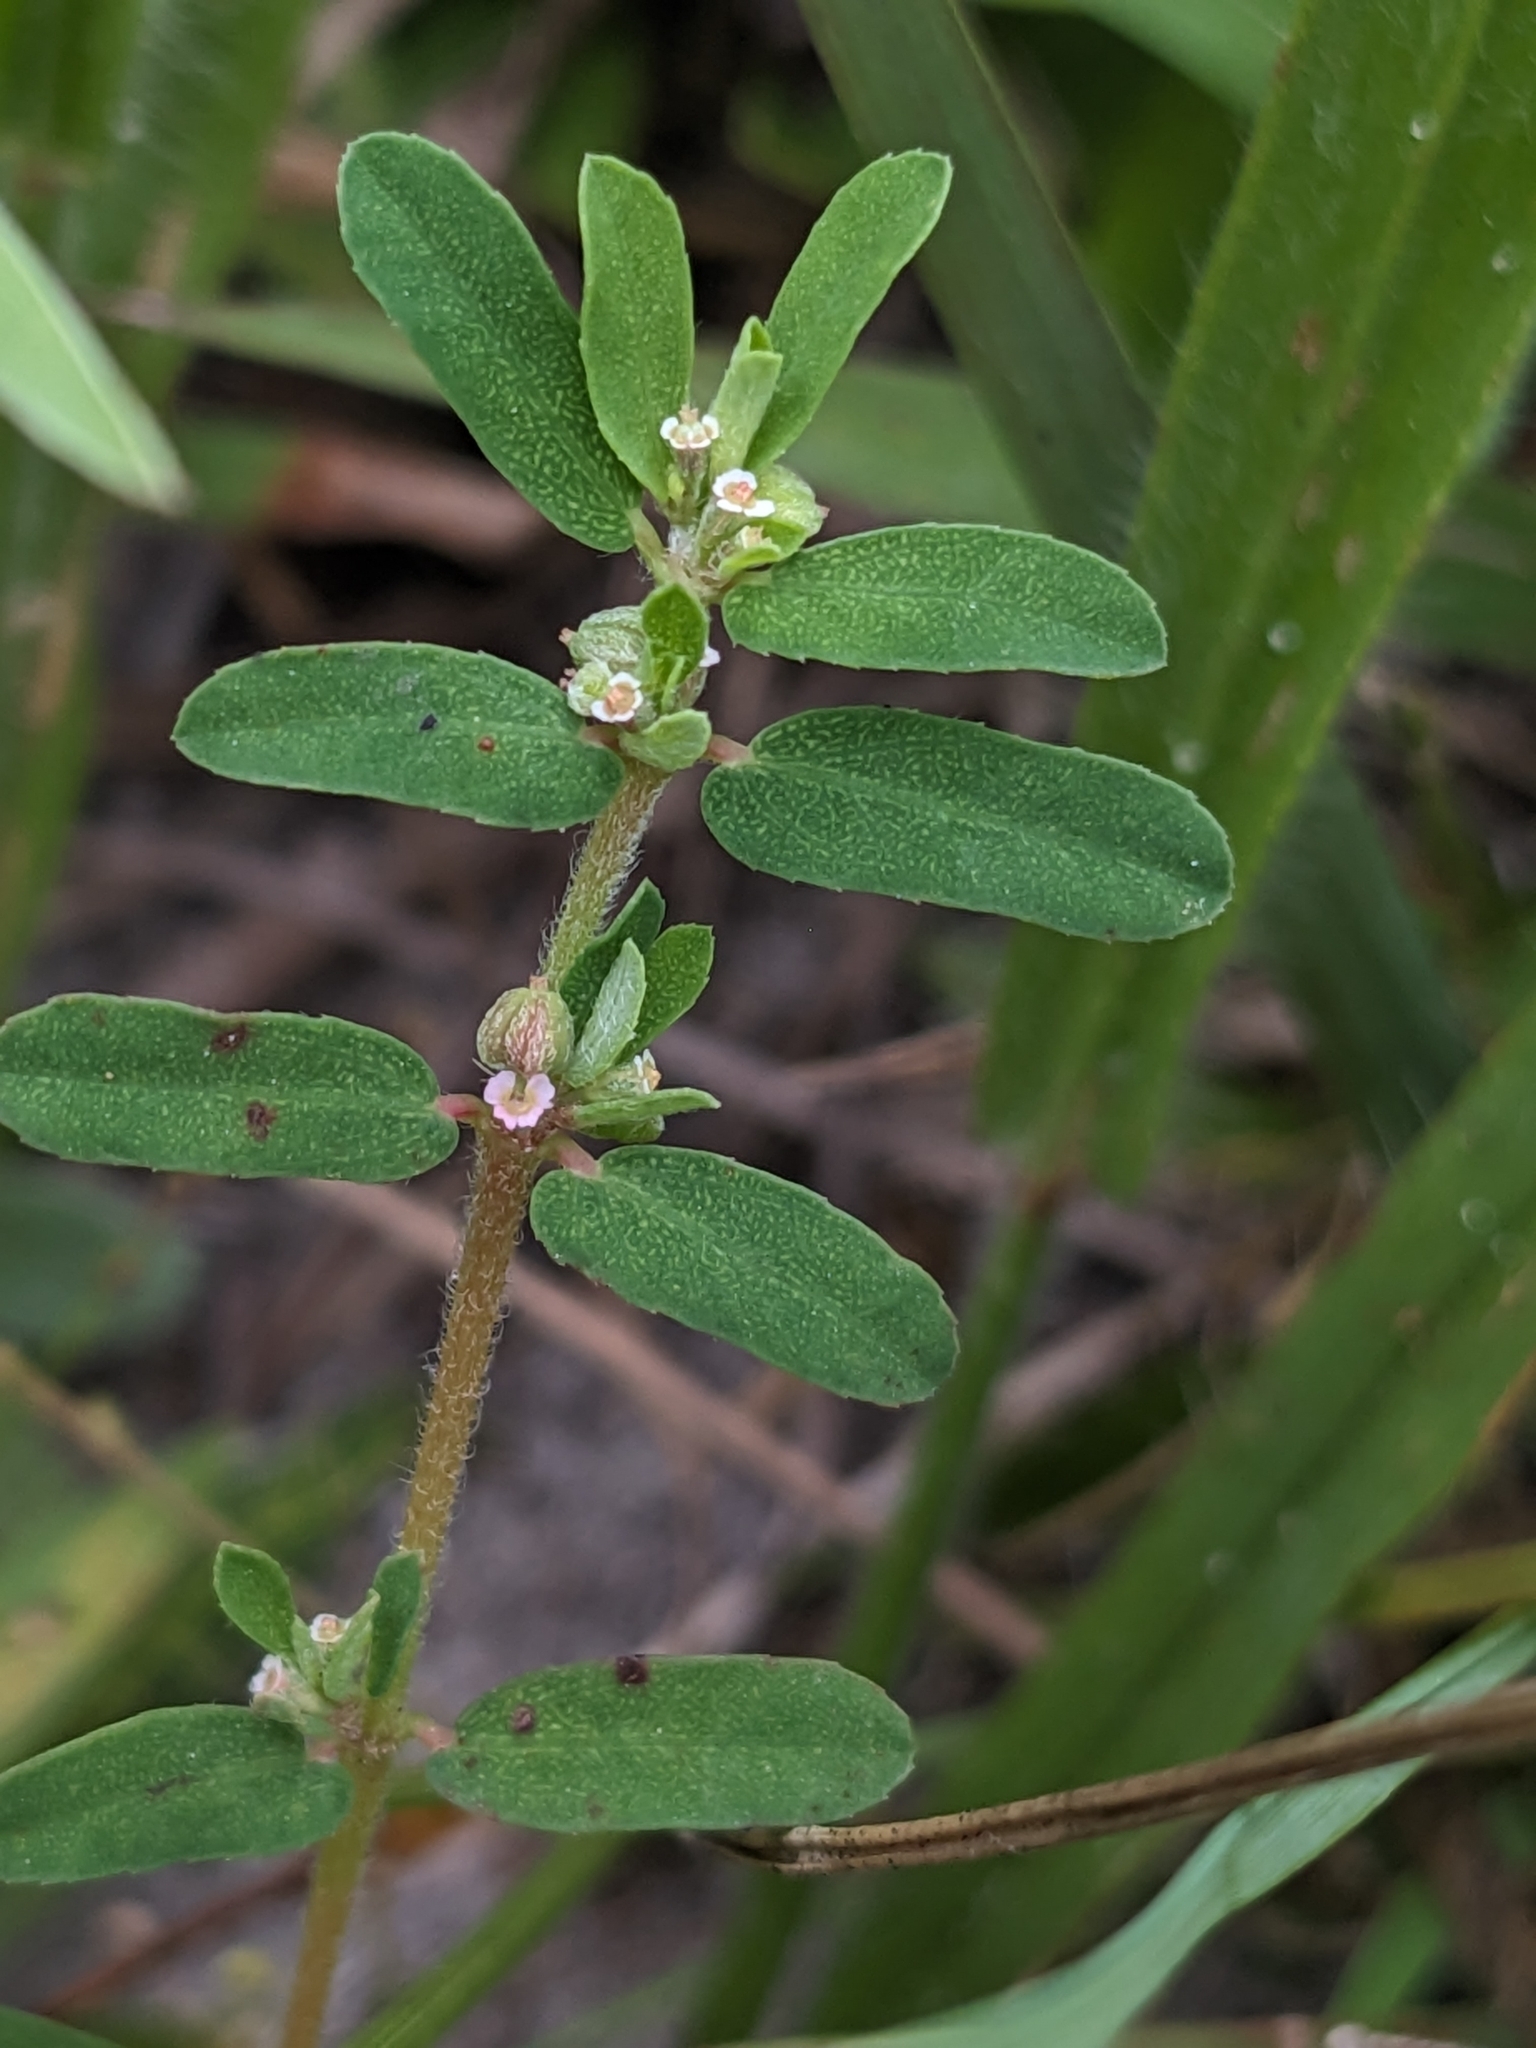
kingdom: Plantae
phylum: Tracheophyta
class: Magnoliopsida
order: Malpighiales
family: Euphorbiaceae
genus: Euphorbia
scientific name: Euphorbia maculata
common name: Spotted spurge
